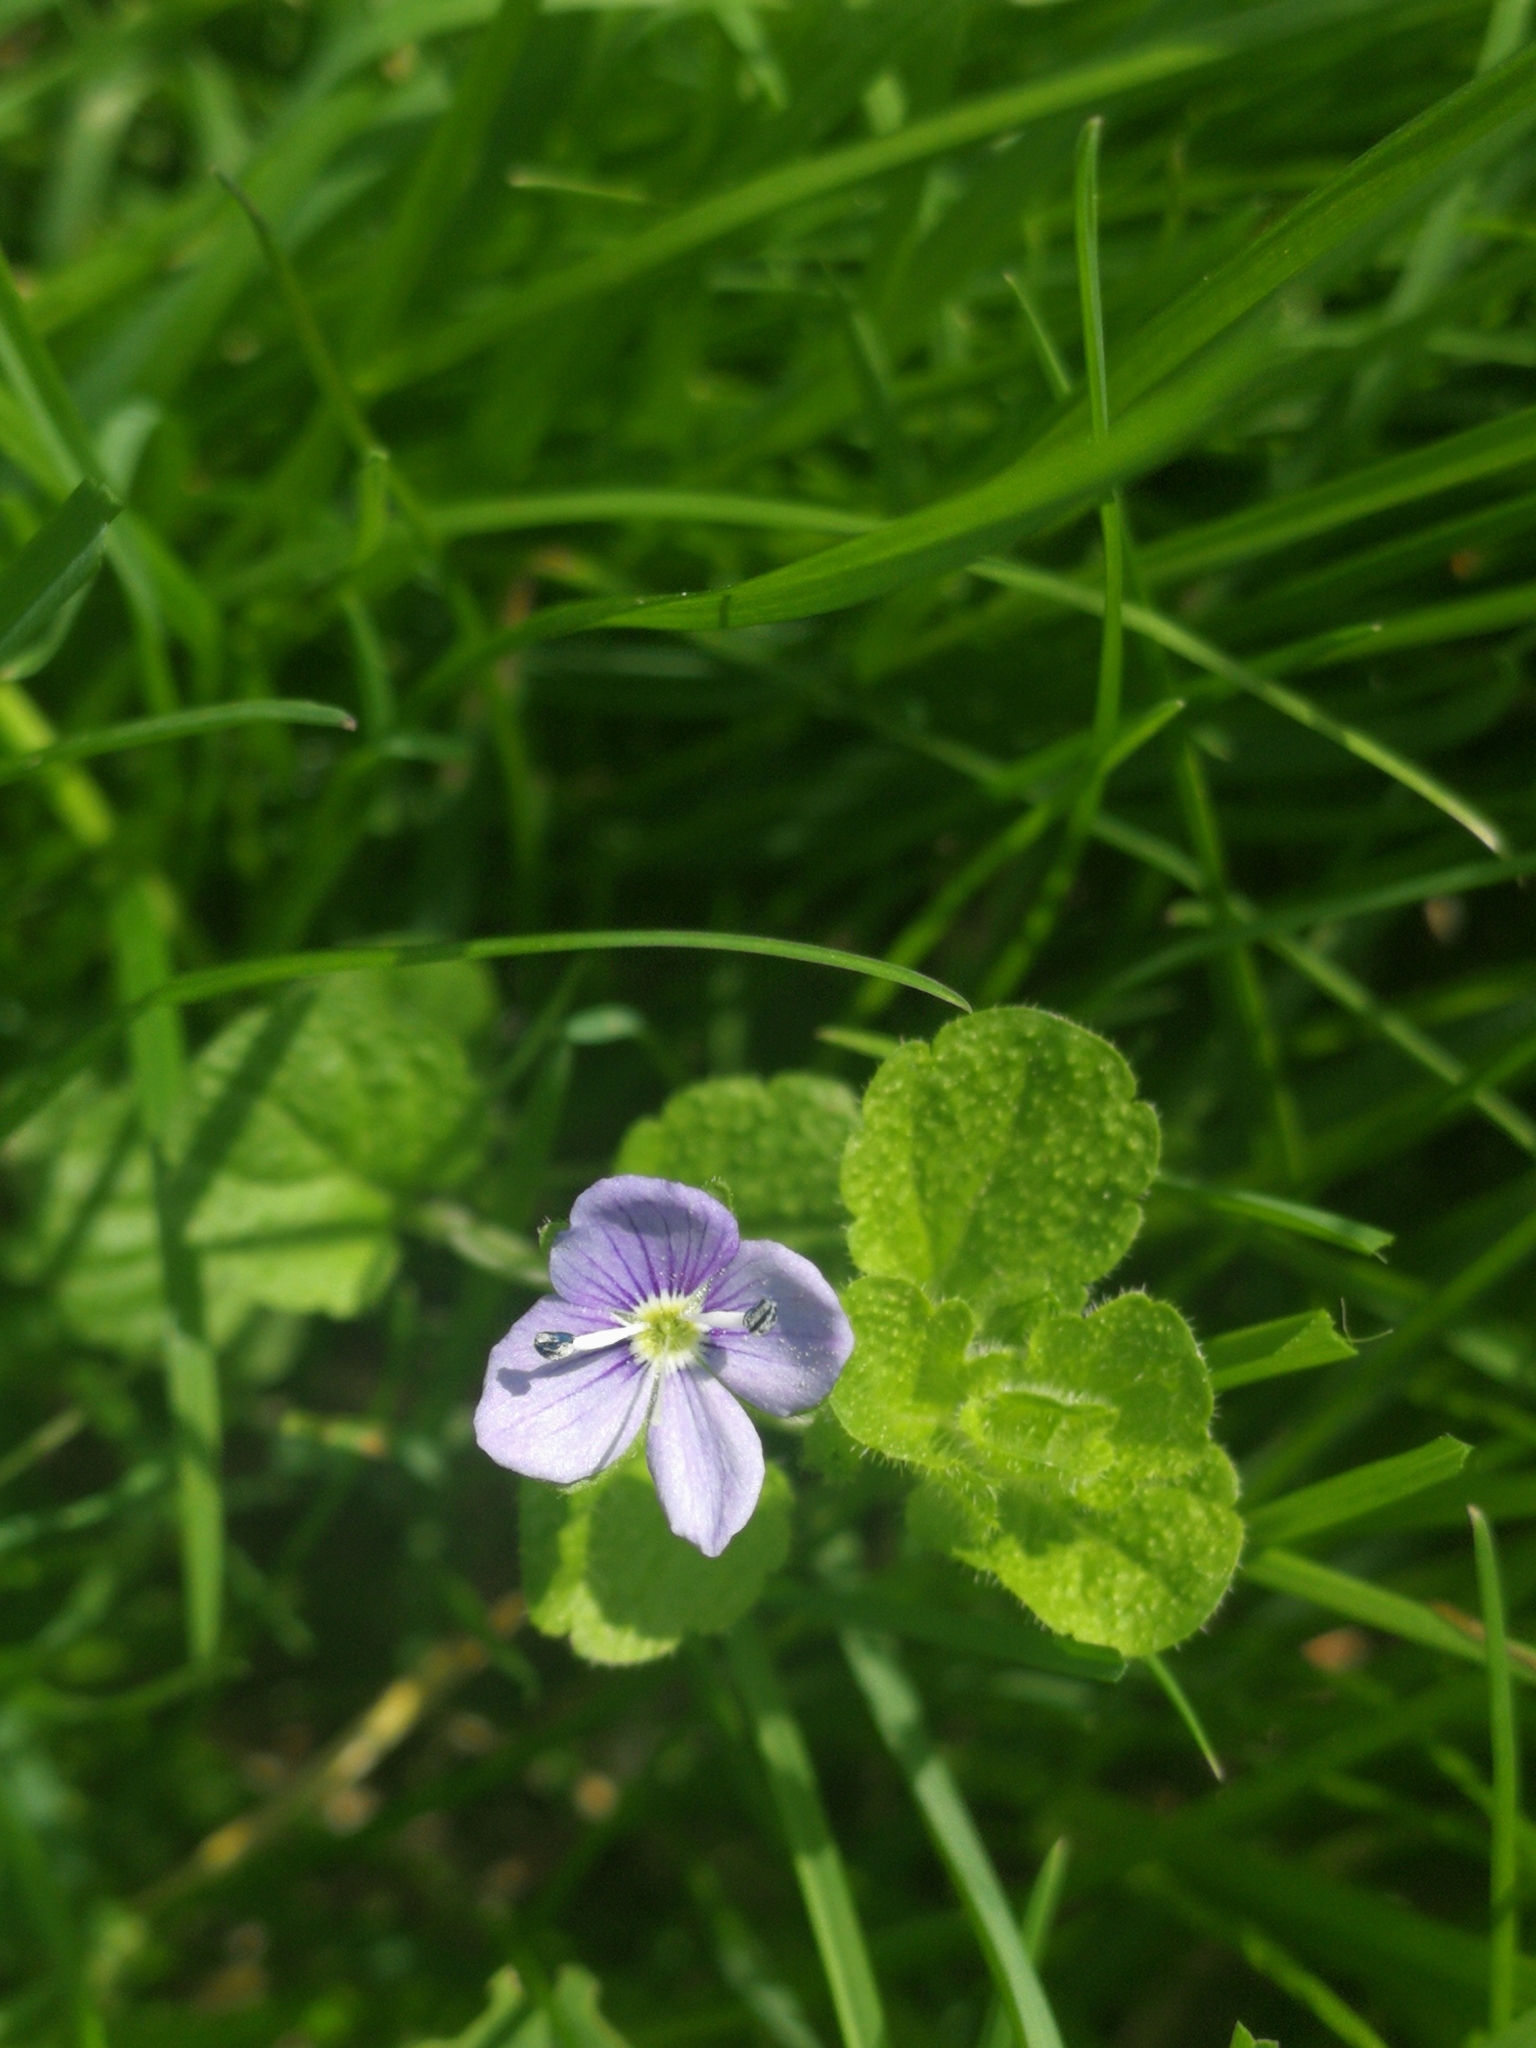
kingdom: Plantae
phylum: Tracheophyta
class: Magnoliopsida
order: Lamiales
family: Plantaginaceae
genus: Veronica
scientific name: Veronica filiformis
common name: Slender speedwell
